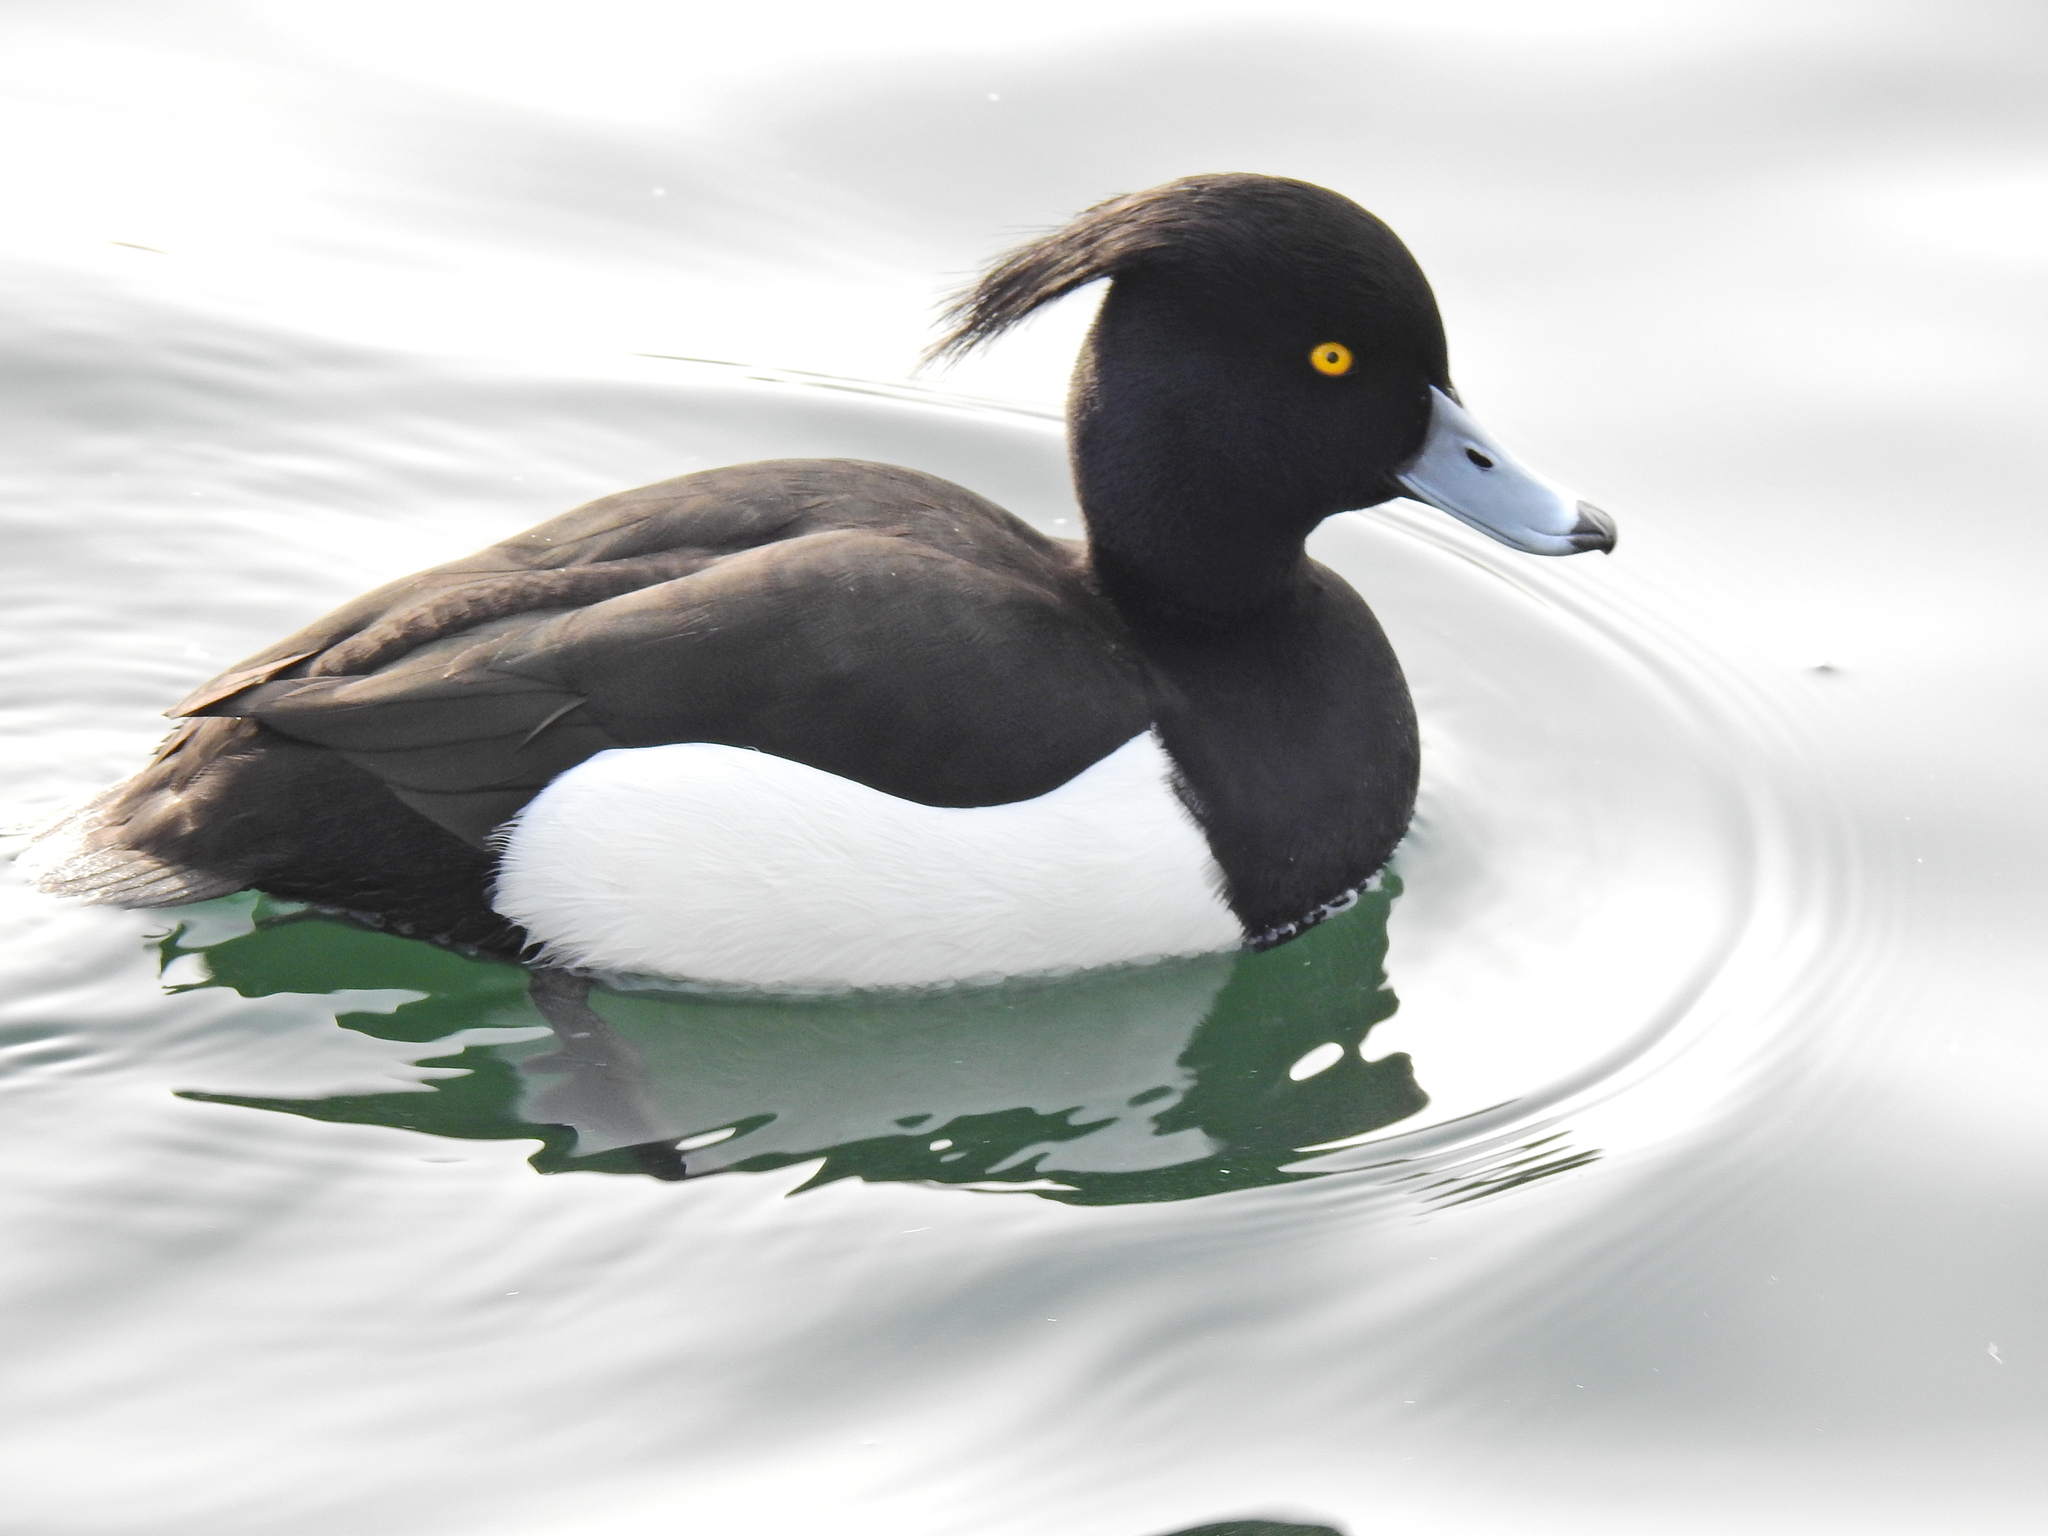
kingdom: Animalia
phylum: Chordata
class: Aves
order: Anseriformes
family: Anatidae
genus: Aythya
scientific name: Aythya fuligula
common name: Tufted duck
